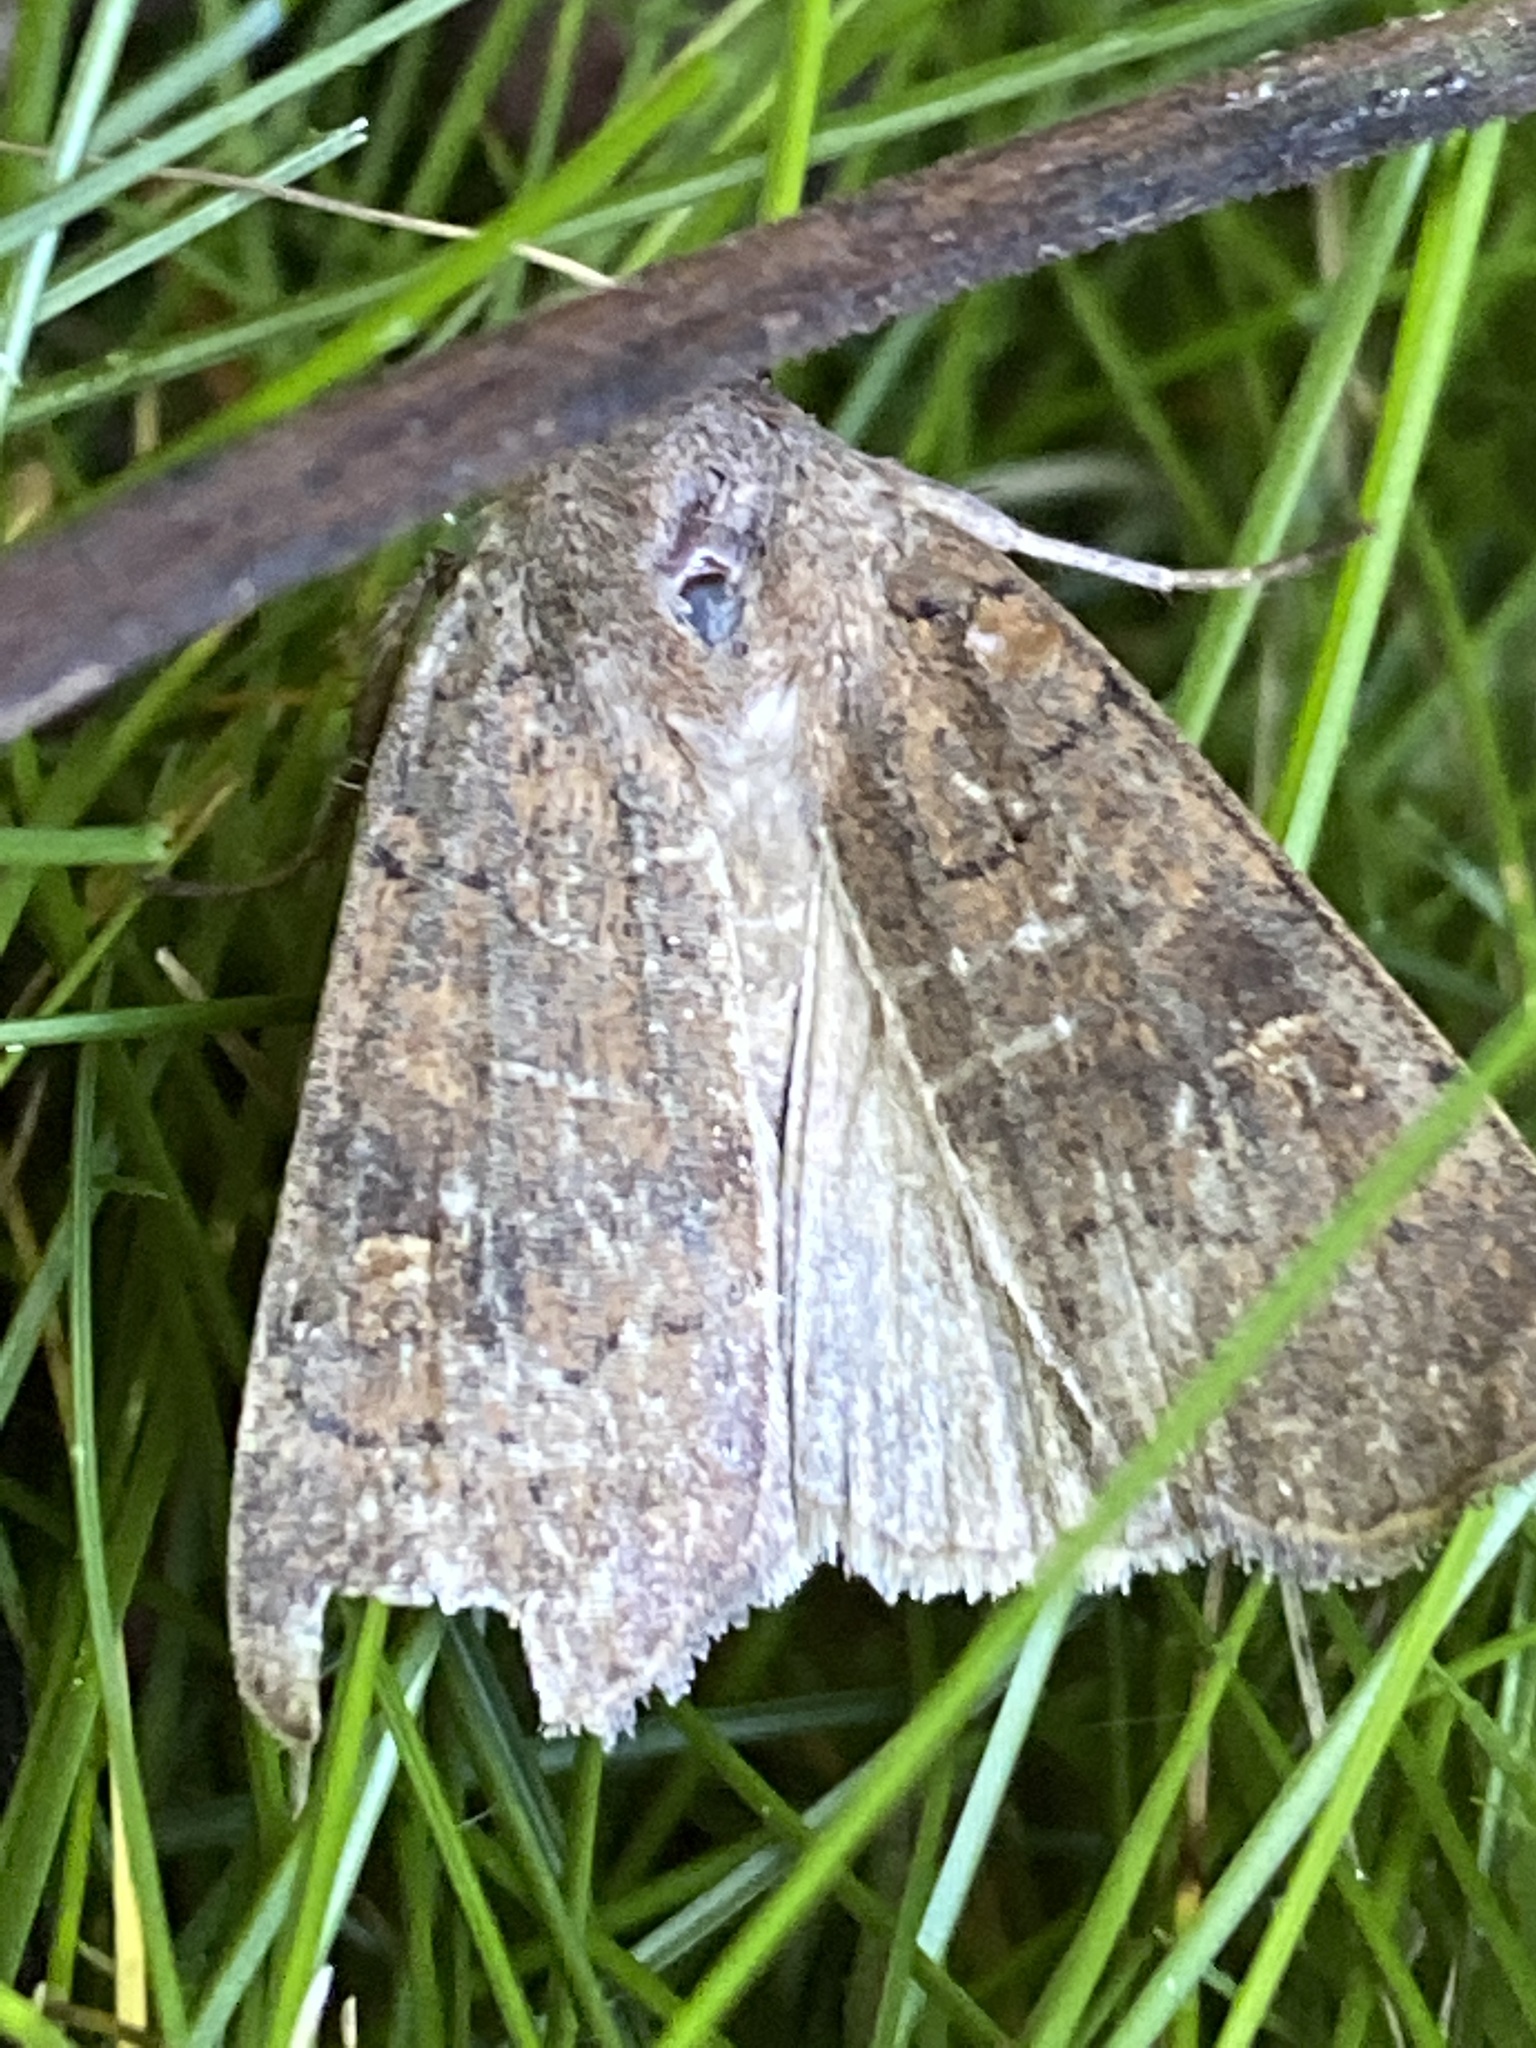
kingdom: Animalia
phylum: Arthropoda
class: Insecta
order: Lepidoptera
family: Noctuidae
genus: Xestia
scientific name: Xestia xanthographa
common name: Square-spot rustic
